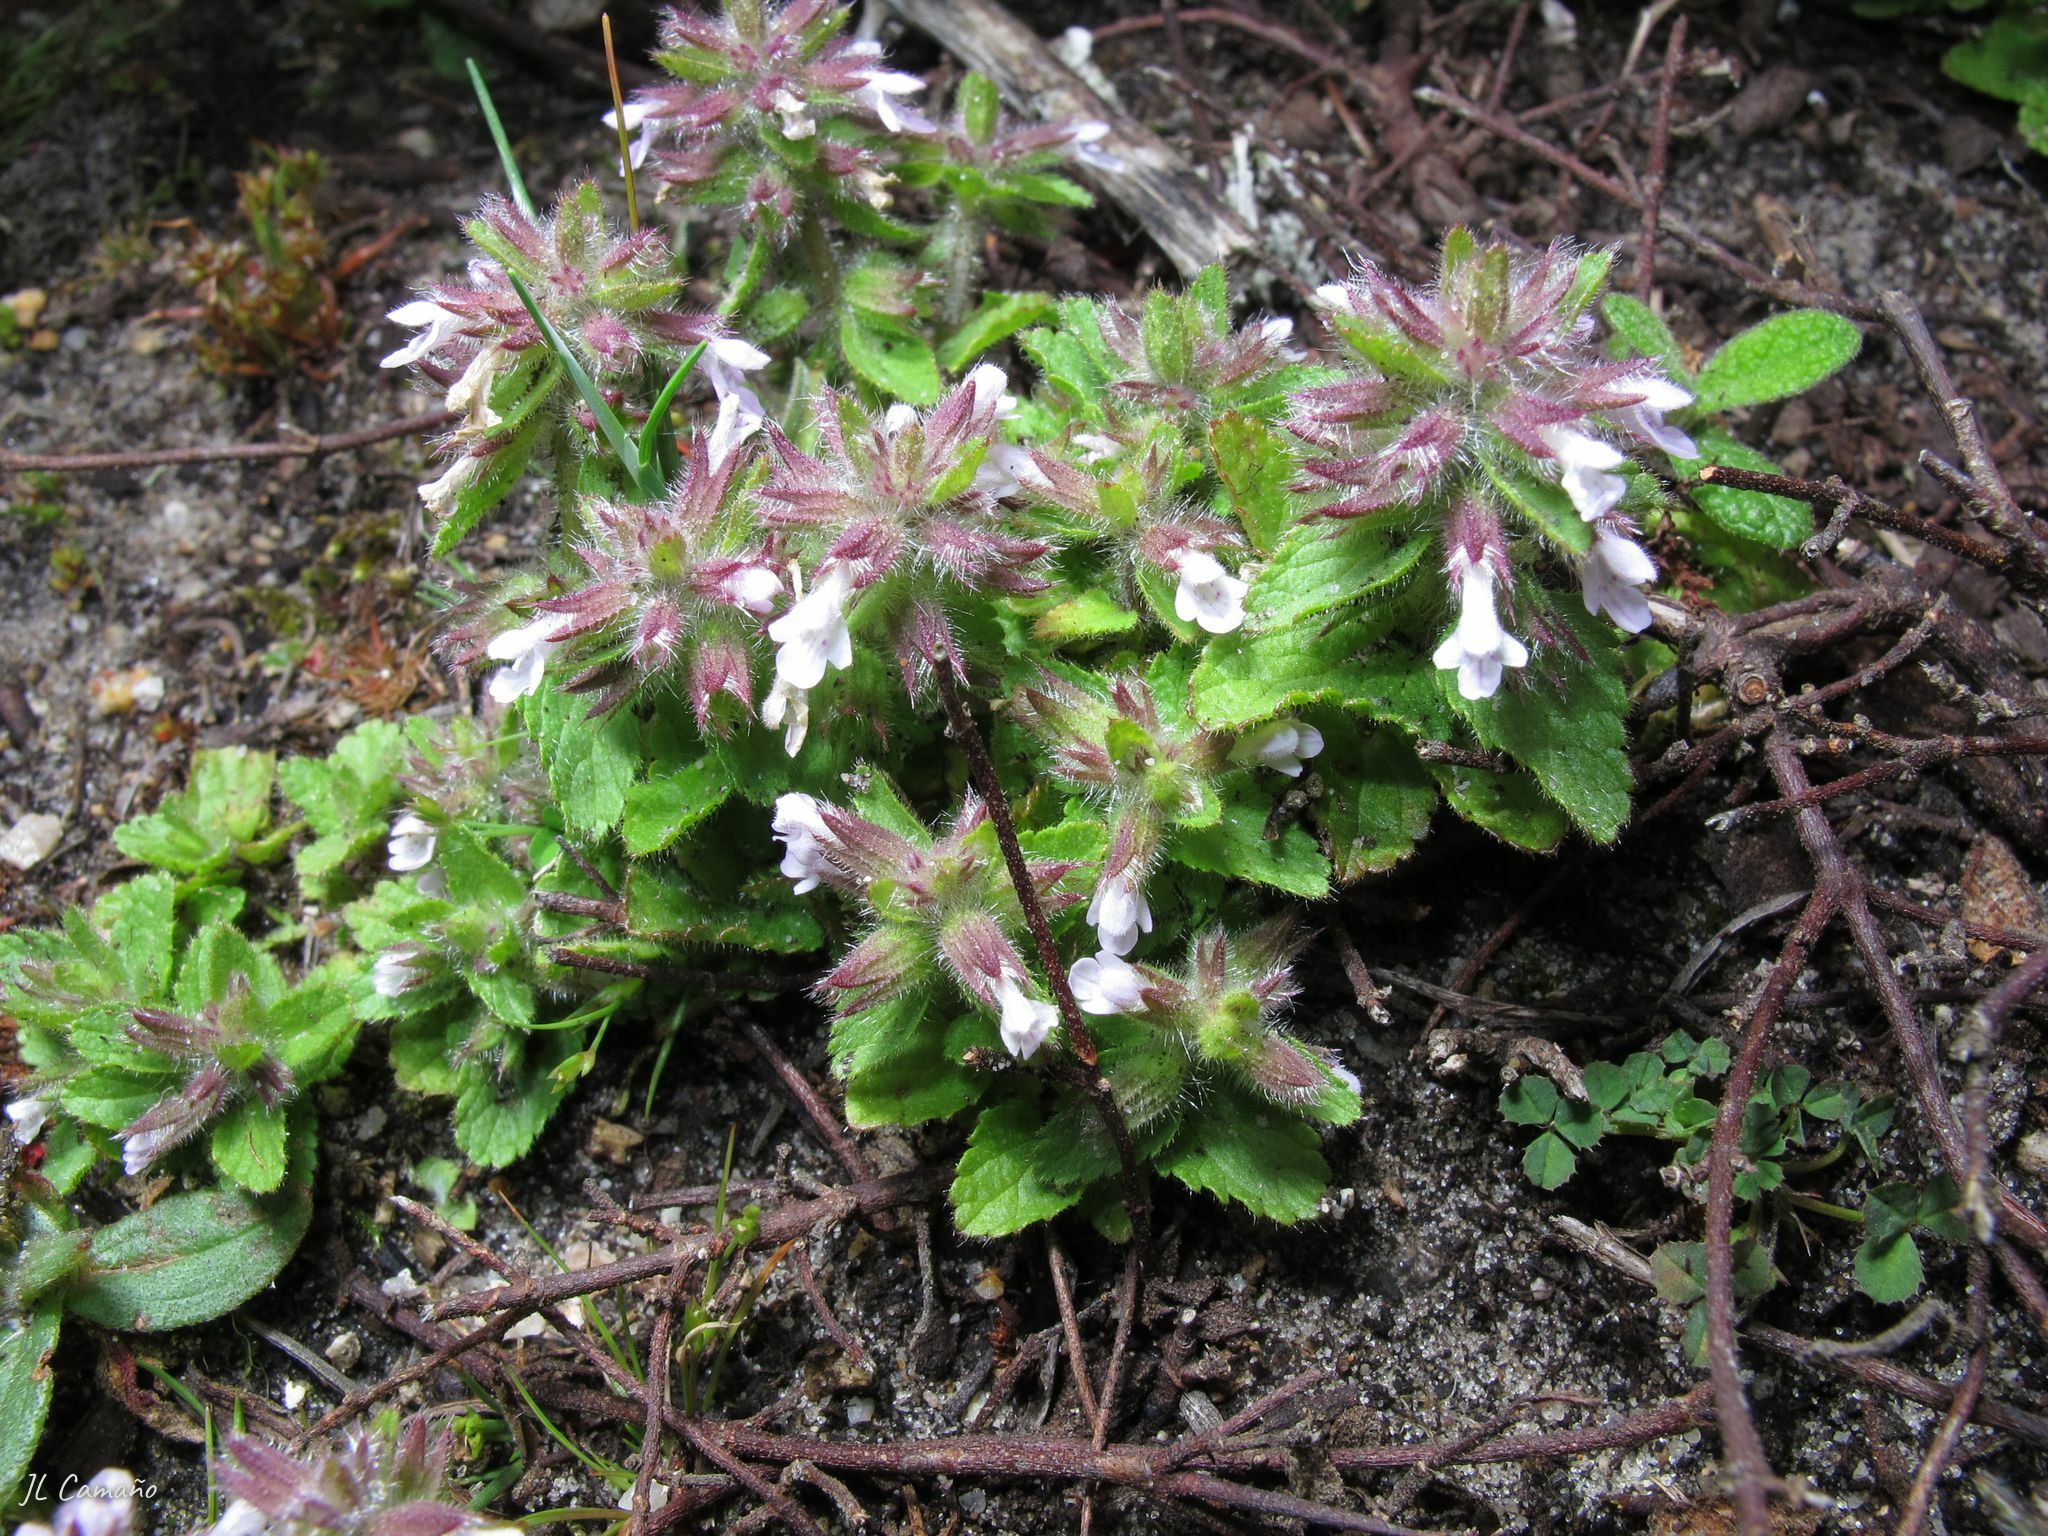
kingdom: Plantae
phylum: Tracheophyta
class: Magnoliopsida
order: Lamiales
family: Lamiaceae
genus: Stachys
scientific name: Stachys arvensis
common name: Field woundwort
